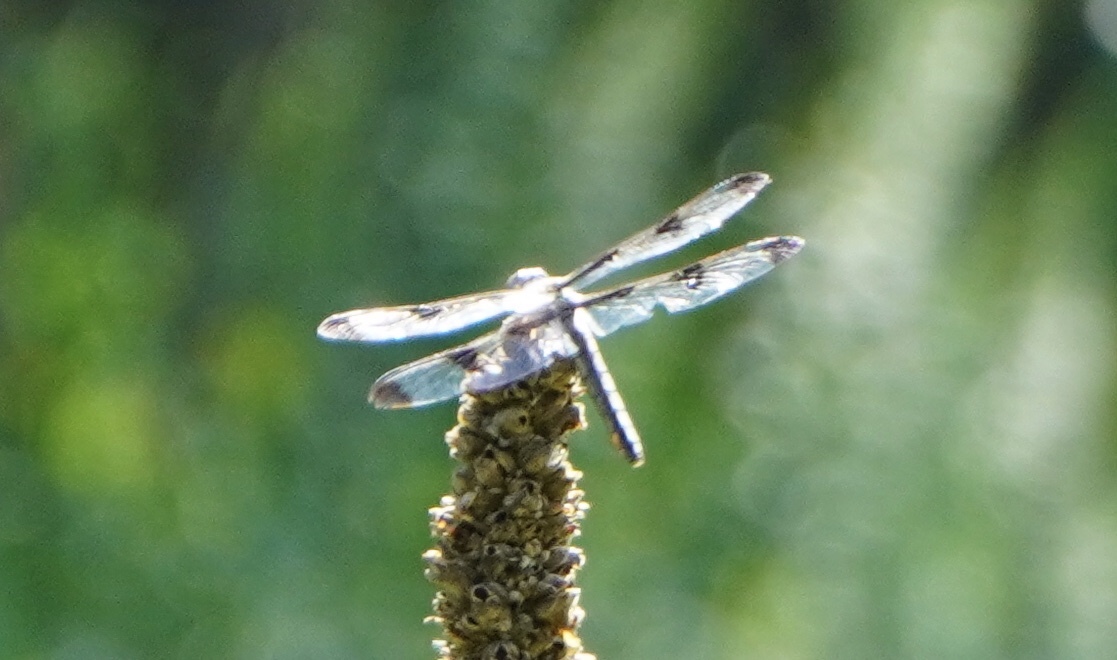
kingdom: Animalia
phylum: Arthropoda
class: Insecta
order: Odonata
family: Libellulidae
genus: Libellula
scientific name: Libellula pulchella
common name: Twelve-spotted skimmer
